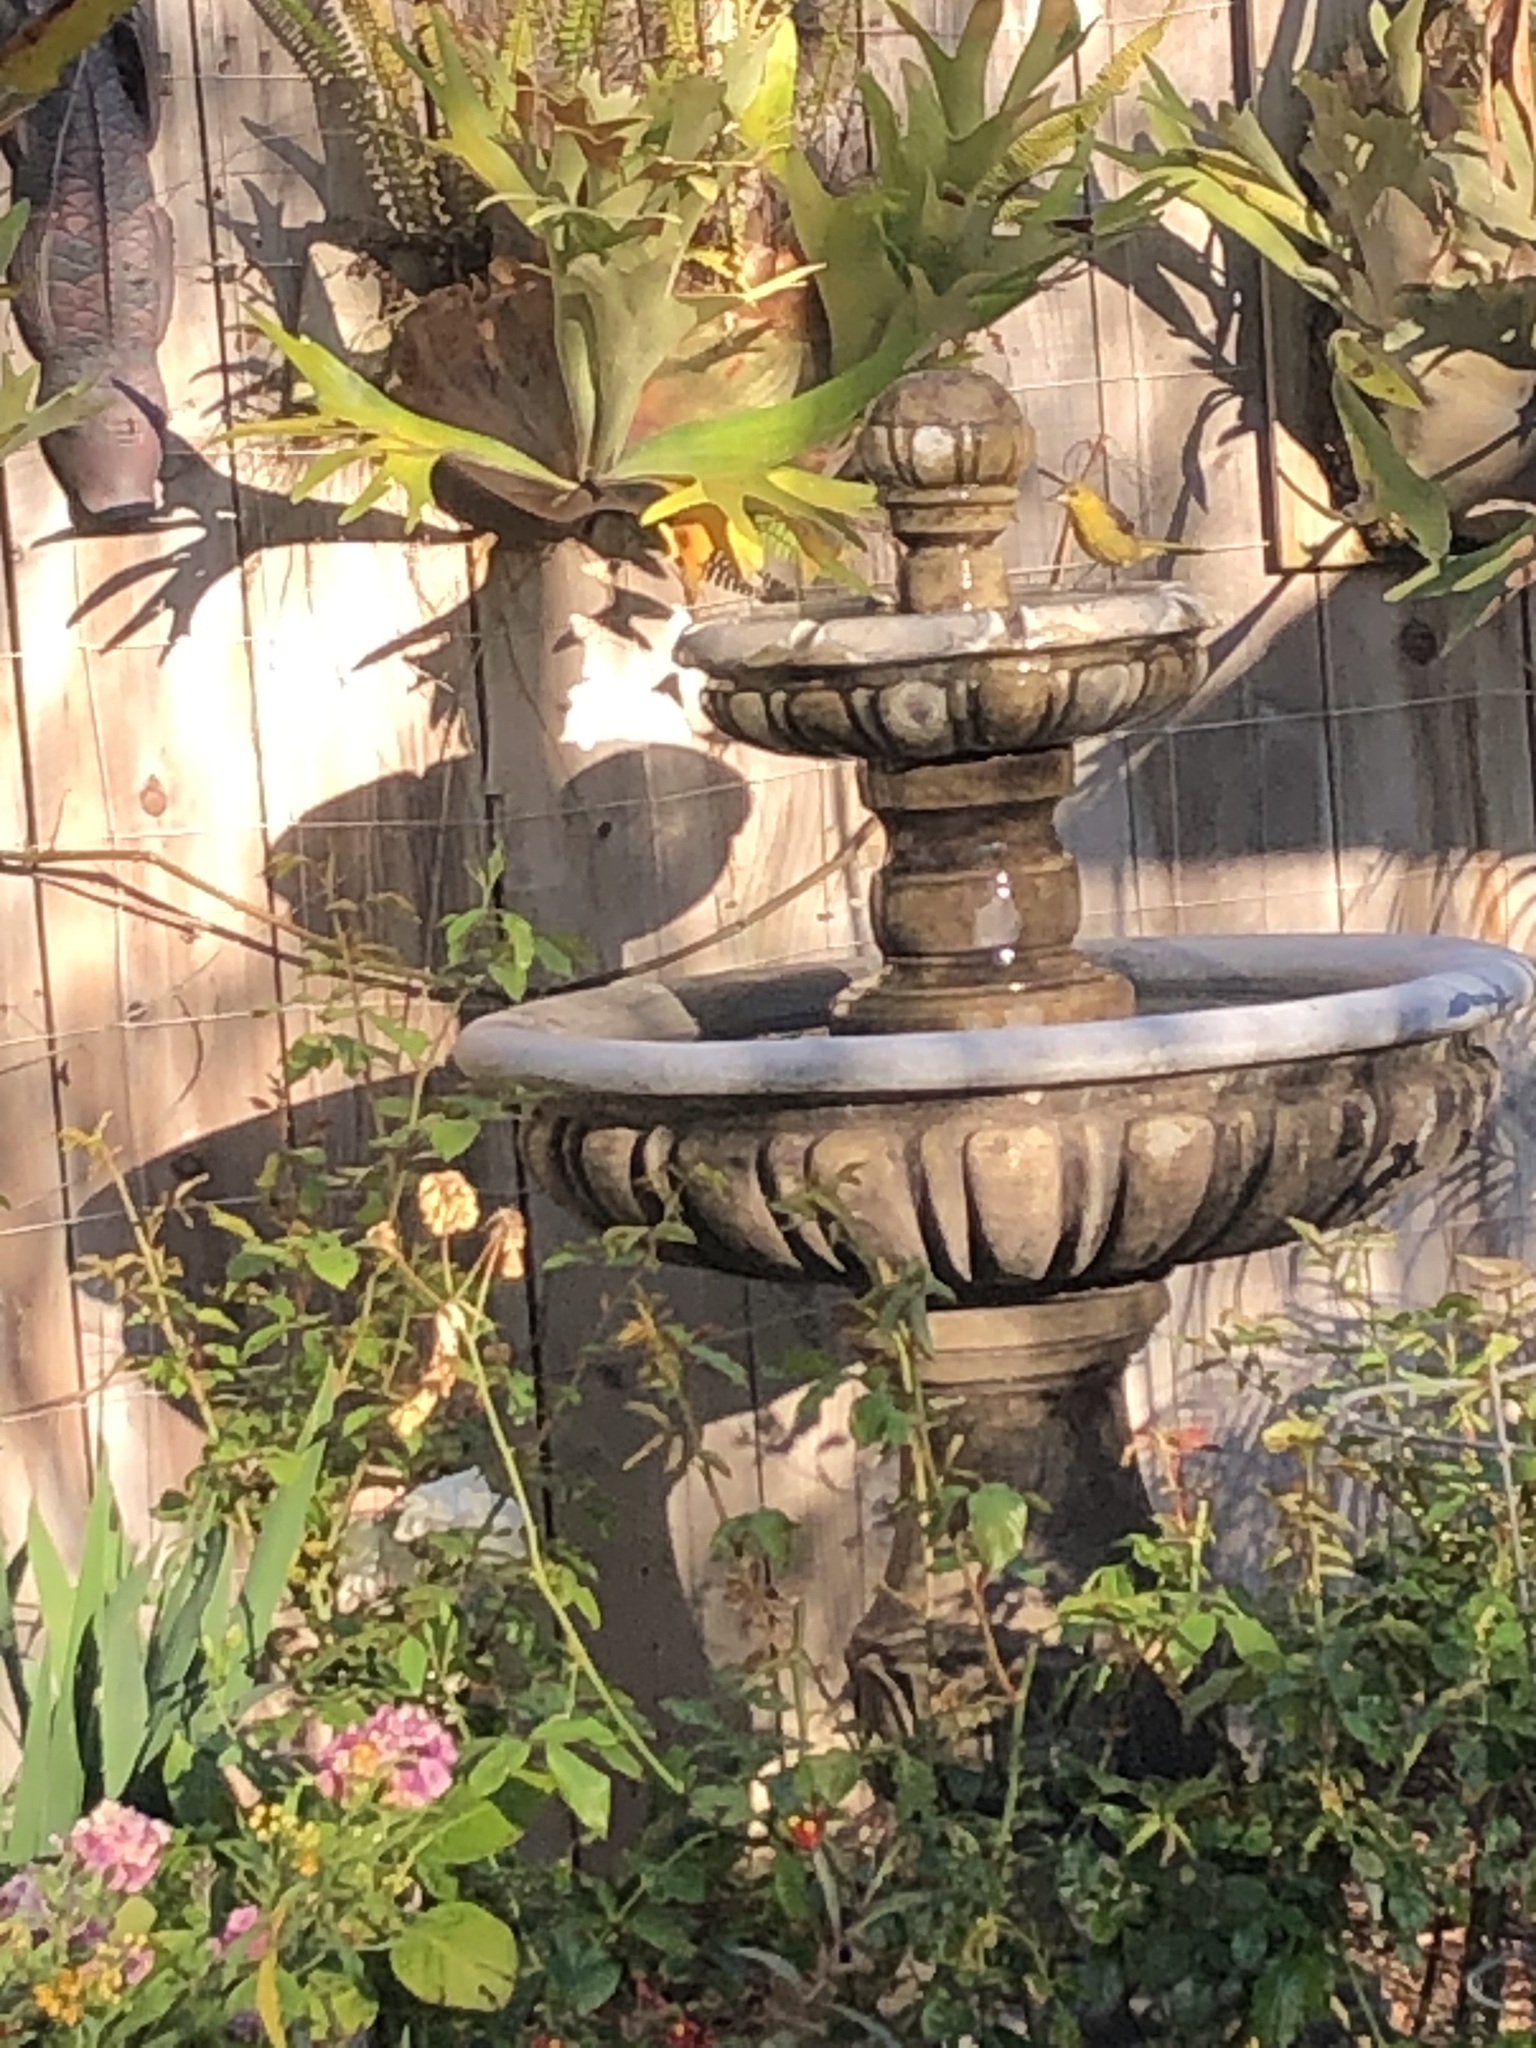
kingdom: Animalia
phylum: Chordata
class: Aves
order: Passeriformes
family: Icteridae
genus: Icterus
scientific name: Icterus cucullatus
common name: Hooded oriole
